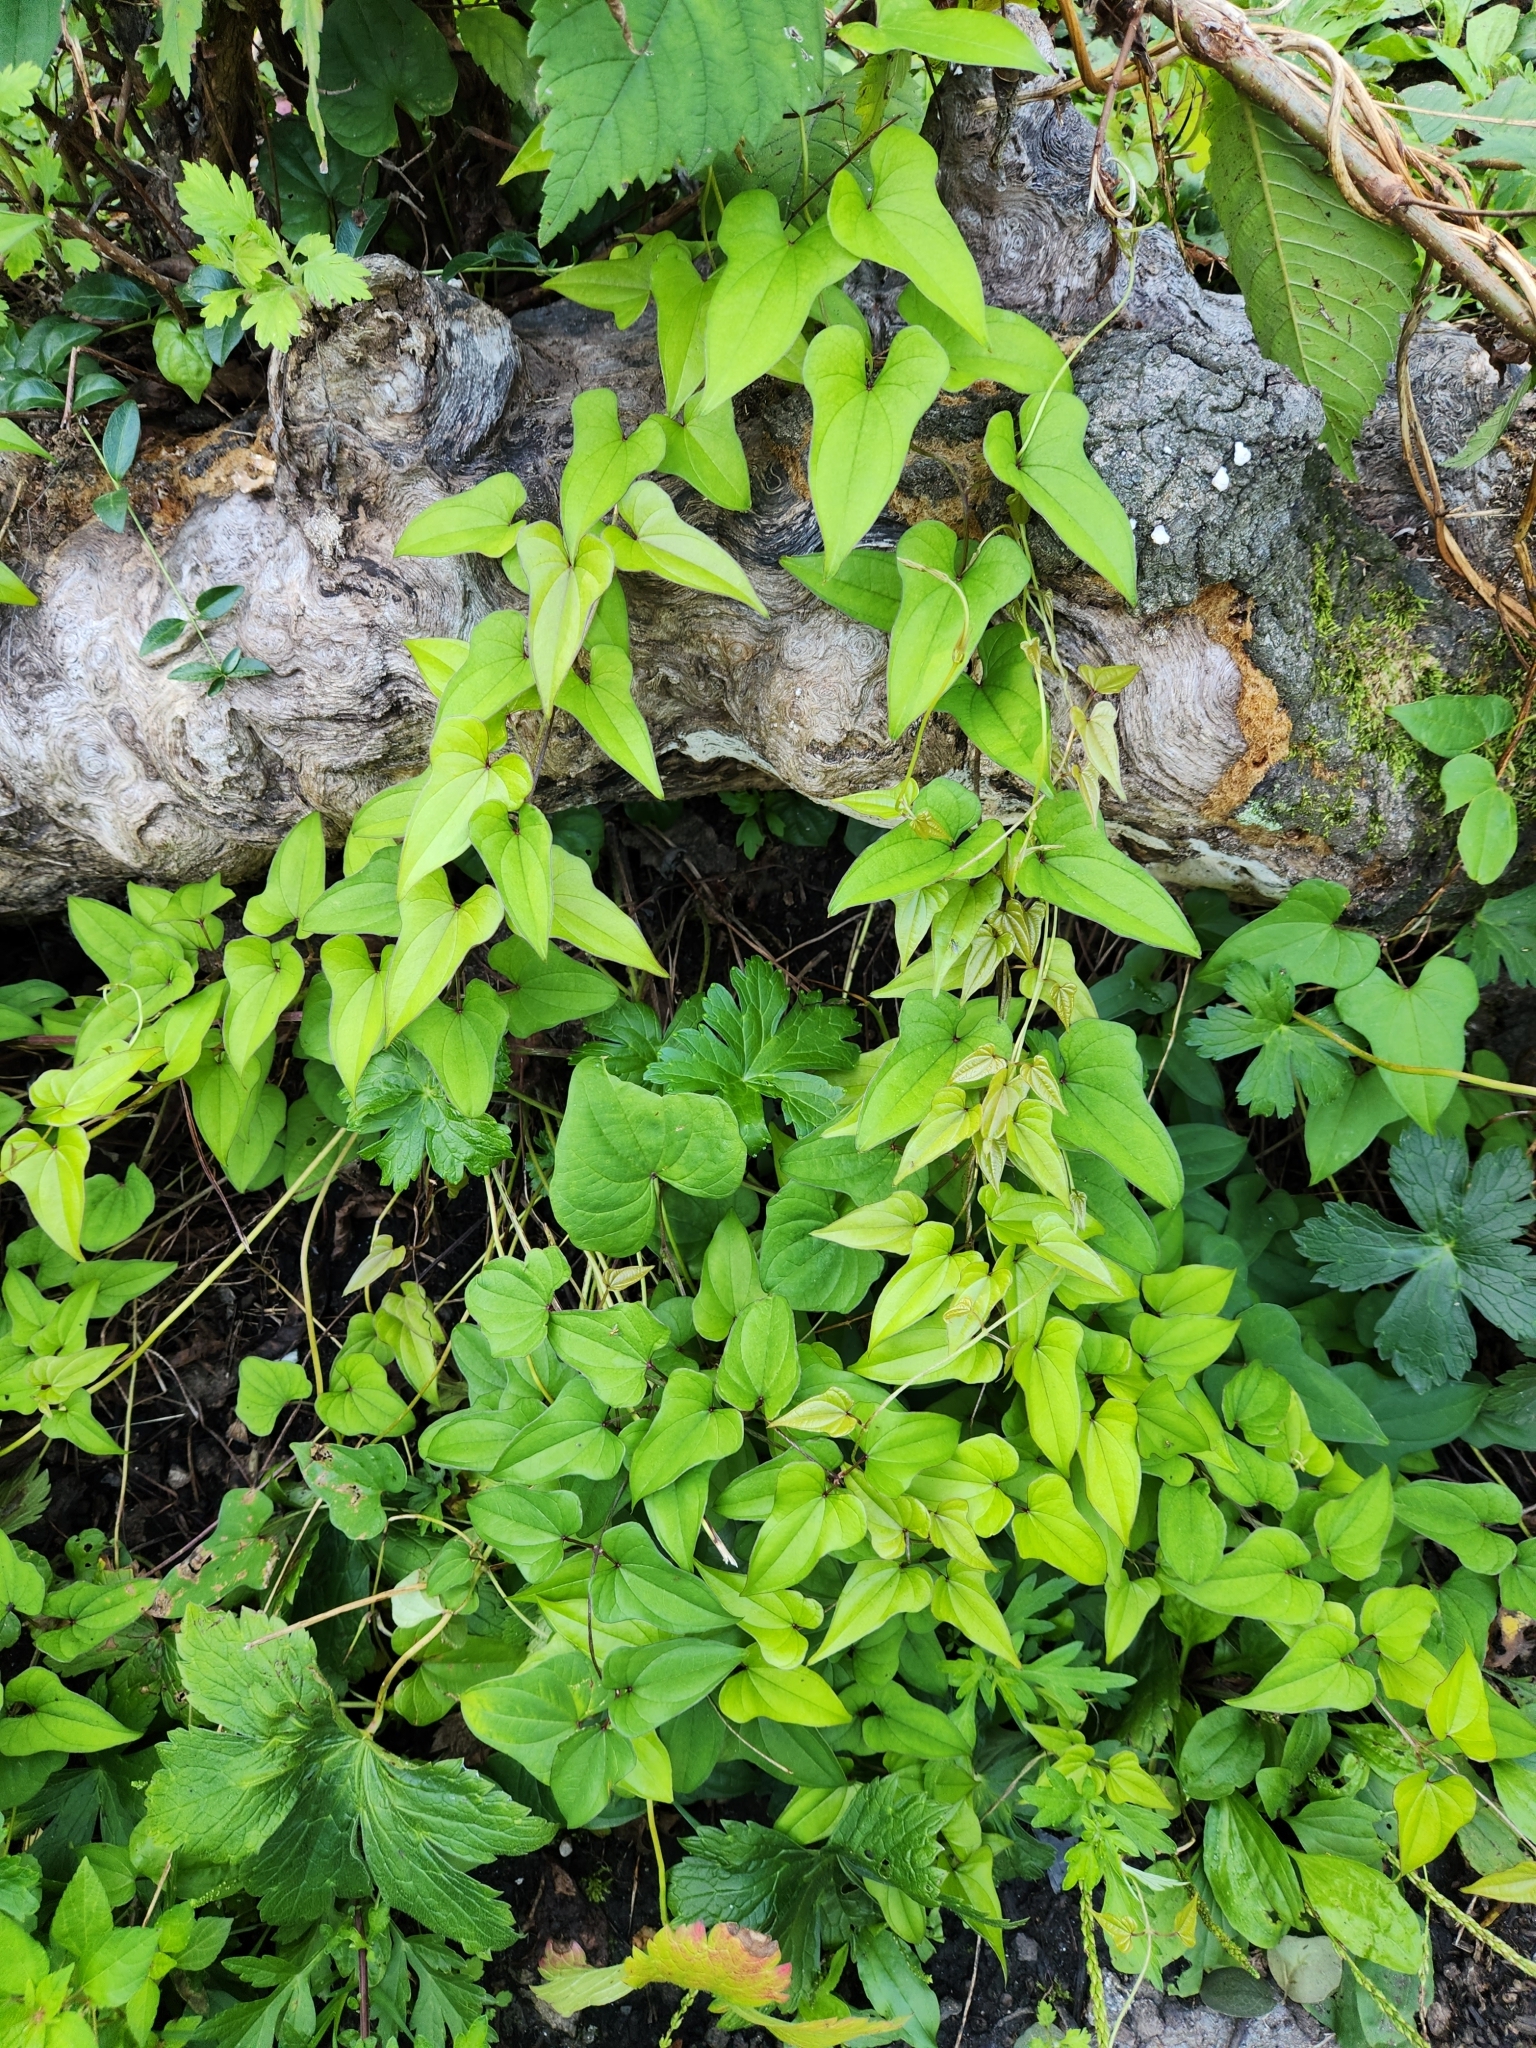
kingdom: Plantae
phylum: Tracheophyta
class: Liliopsida
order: Dioscoreales
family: Dioscoreaceae
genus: Dioscorea
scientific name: Dioscorea polystachya
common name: Chinese yam
